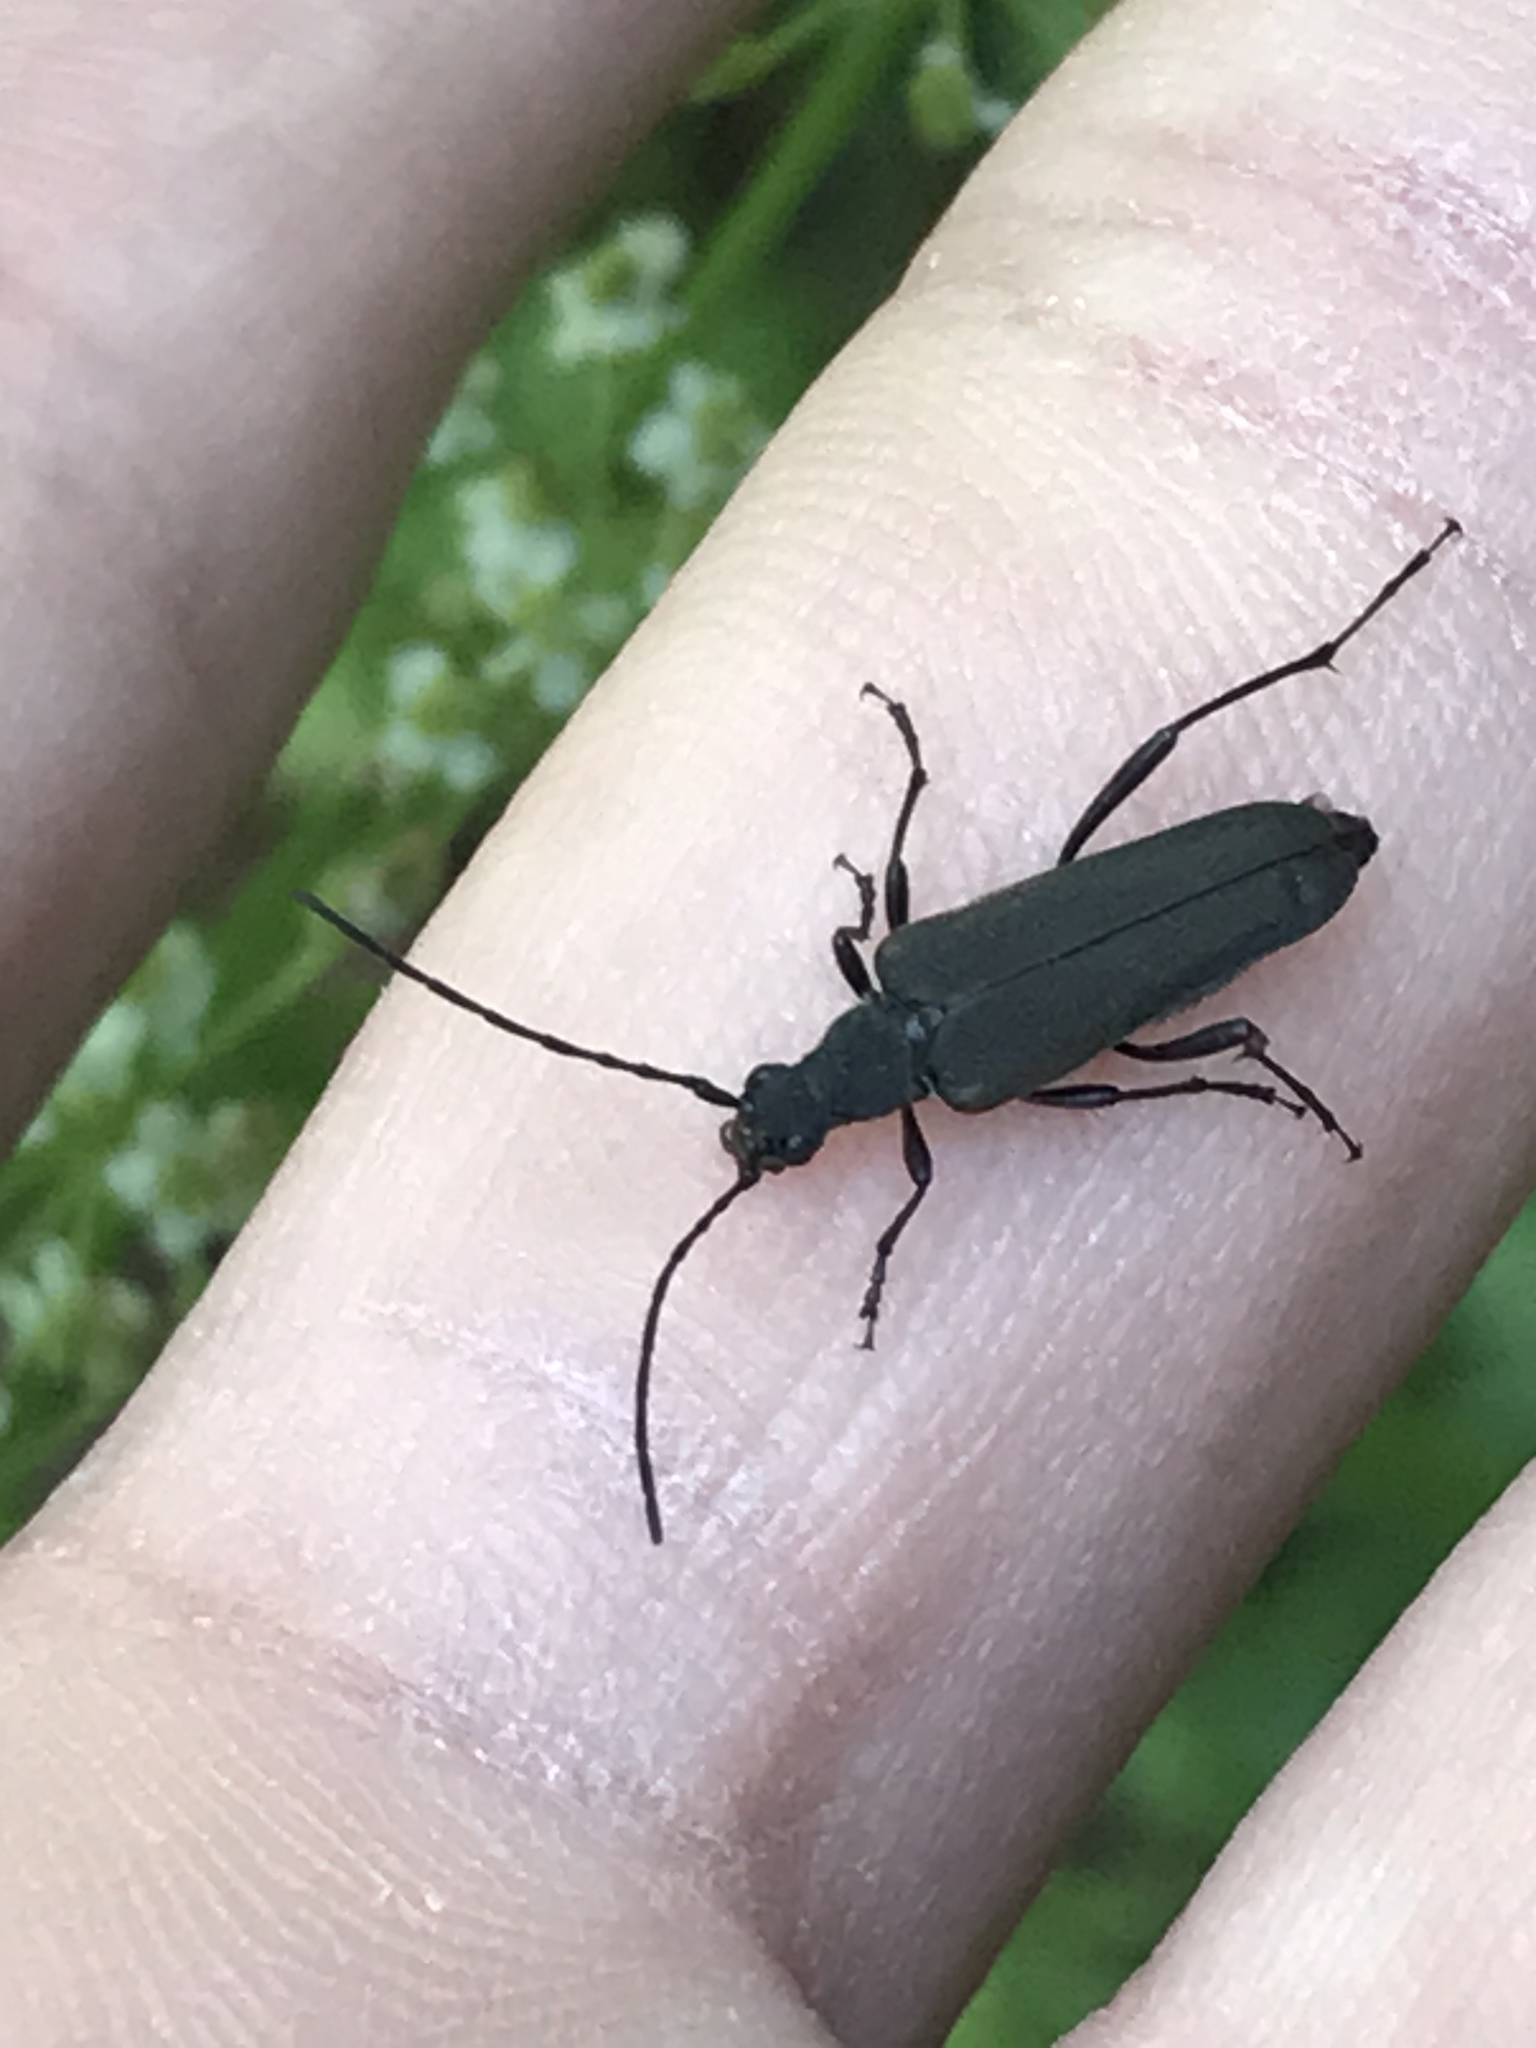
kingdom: Animalia
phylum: Arthropoda
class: Insecta
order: Coleoptera
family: Cerambycidae
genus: Trachysida
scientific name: Trachysida aspera
